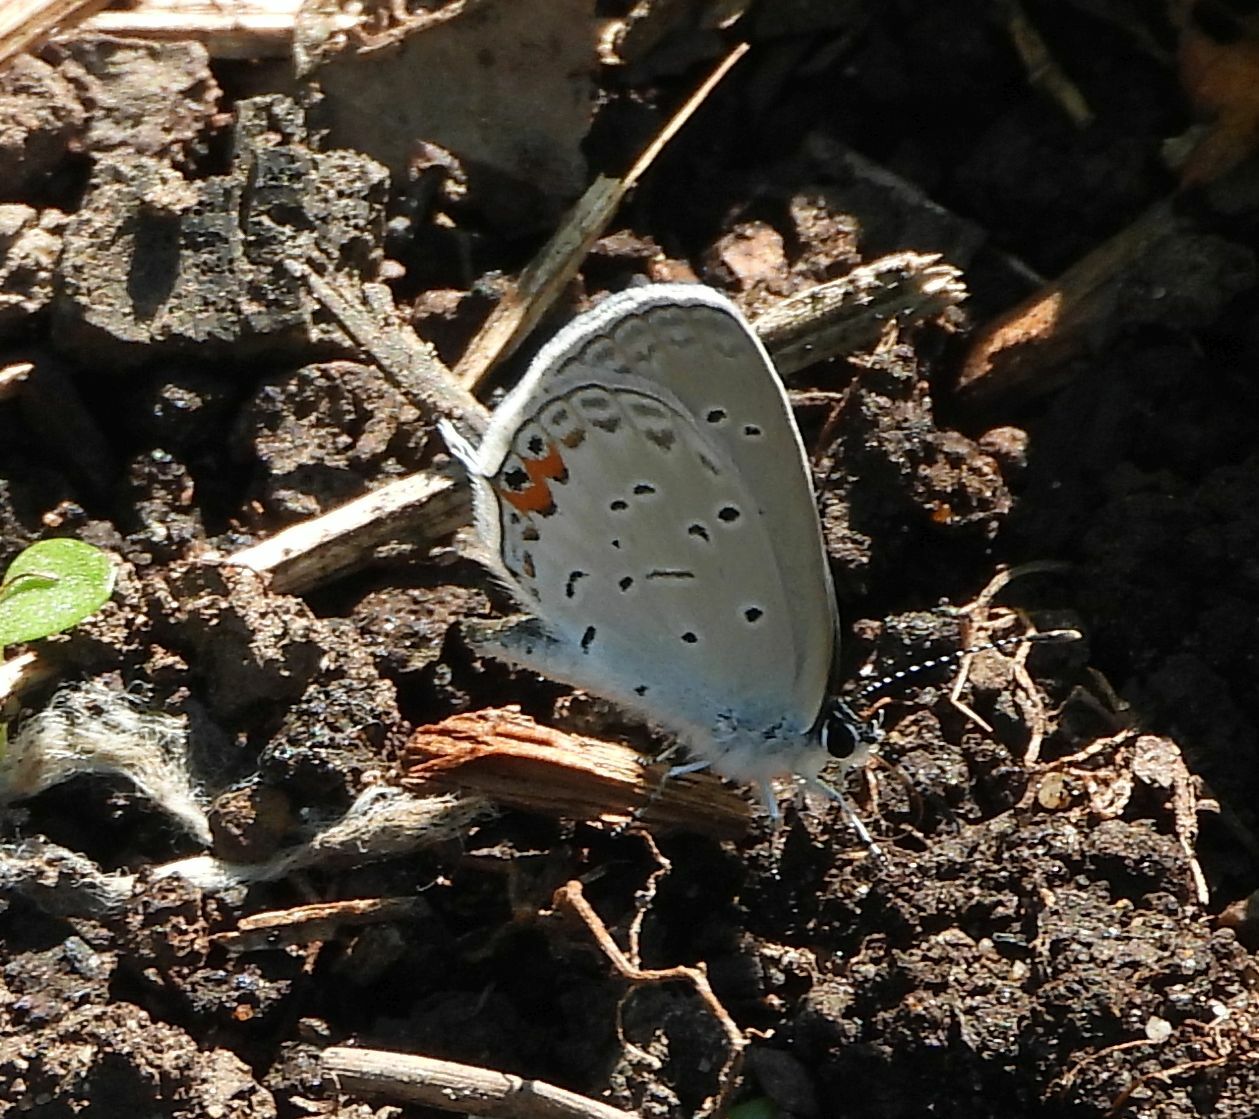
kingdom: Animalia
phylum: Arthropoda
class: Insecta
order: Lepidoptera
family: Lycaenidae
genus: Elkalyce
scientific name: Elkalyce comyntas
